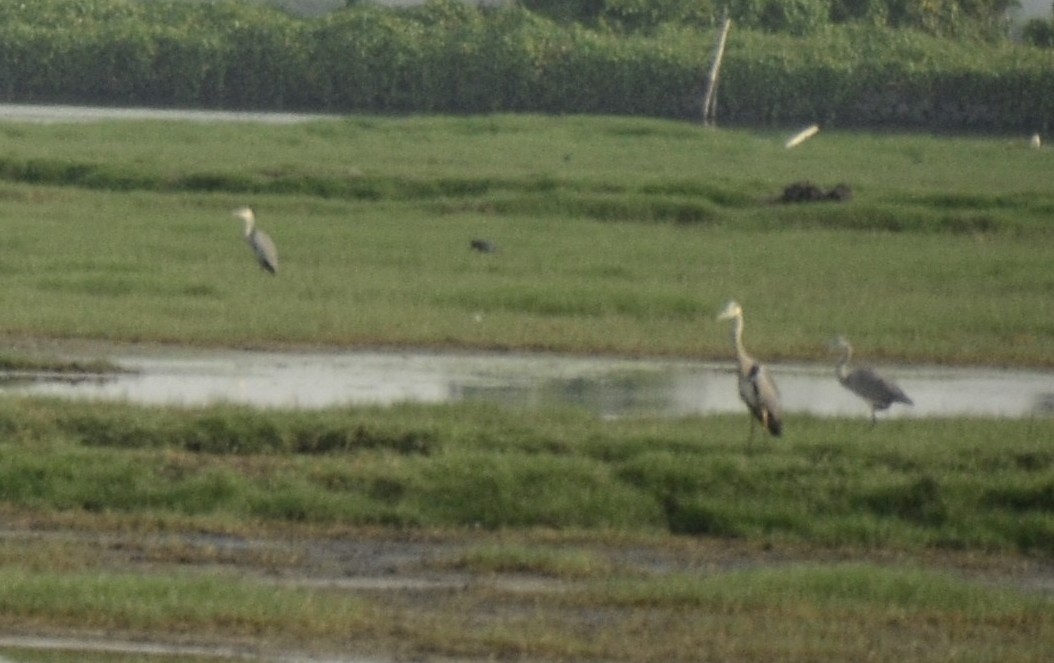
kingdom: Animalia
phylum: Chordata
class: Aves
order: Pelecaniformes
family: Ardeidae
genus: Ardea
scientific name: Ardea cinerea
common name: Grey heron
